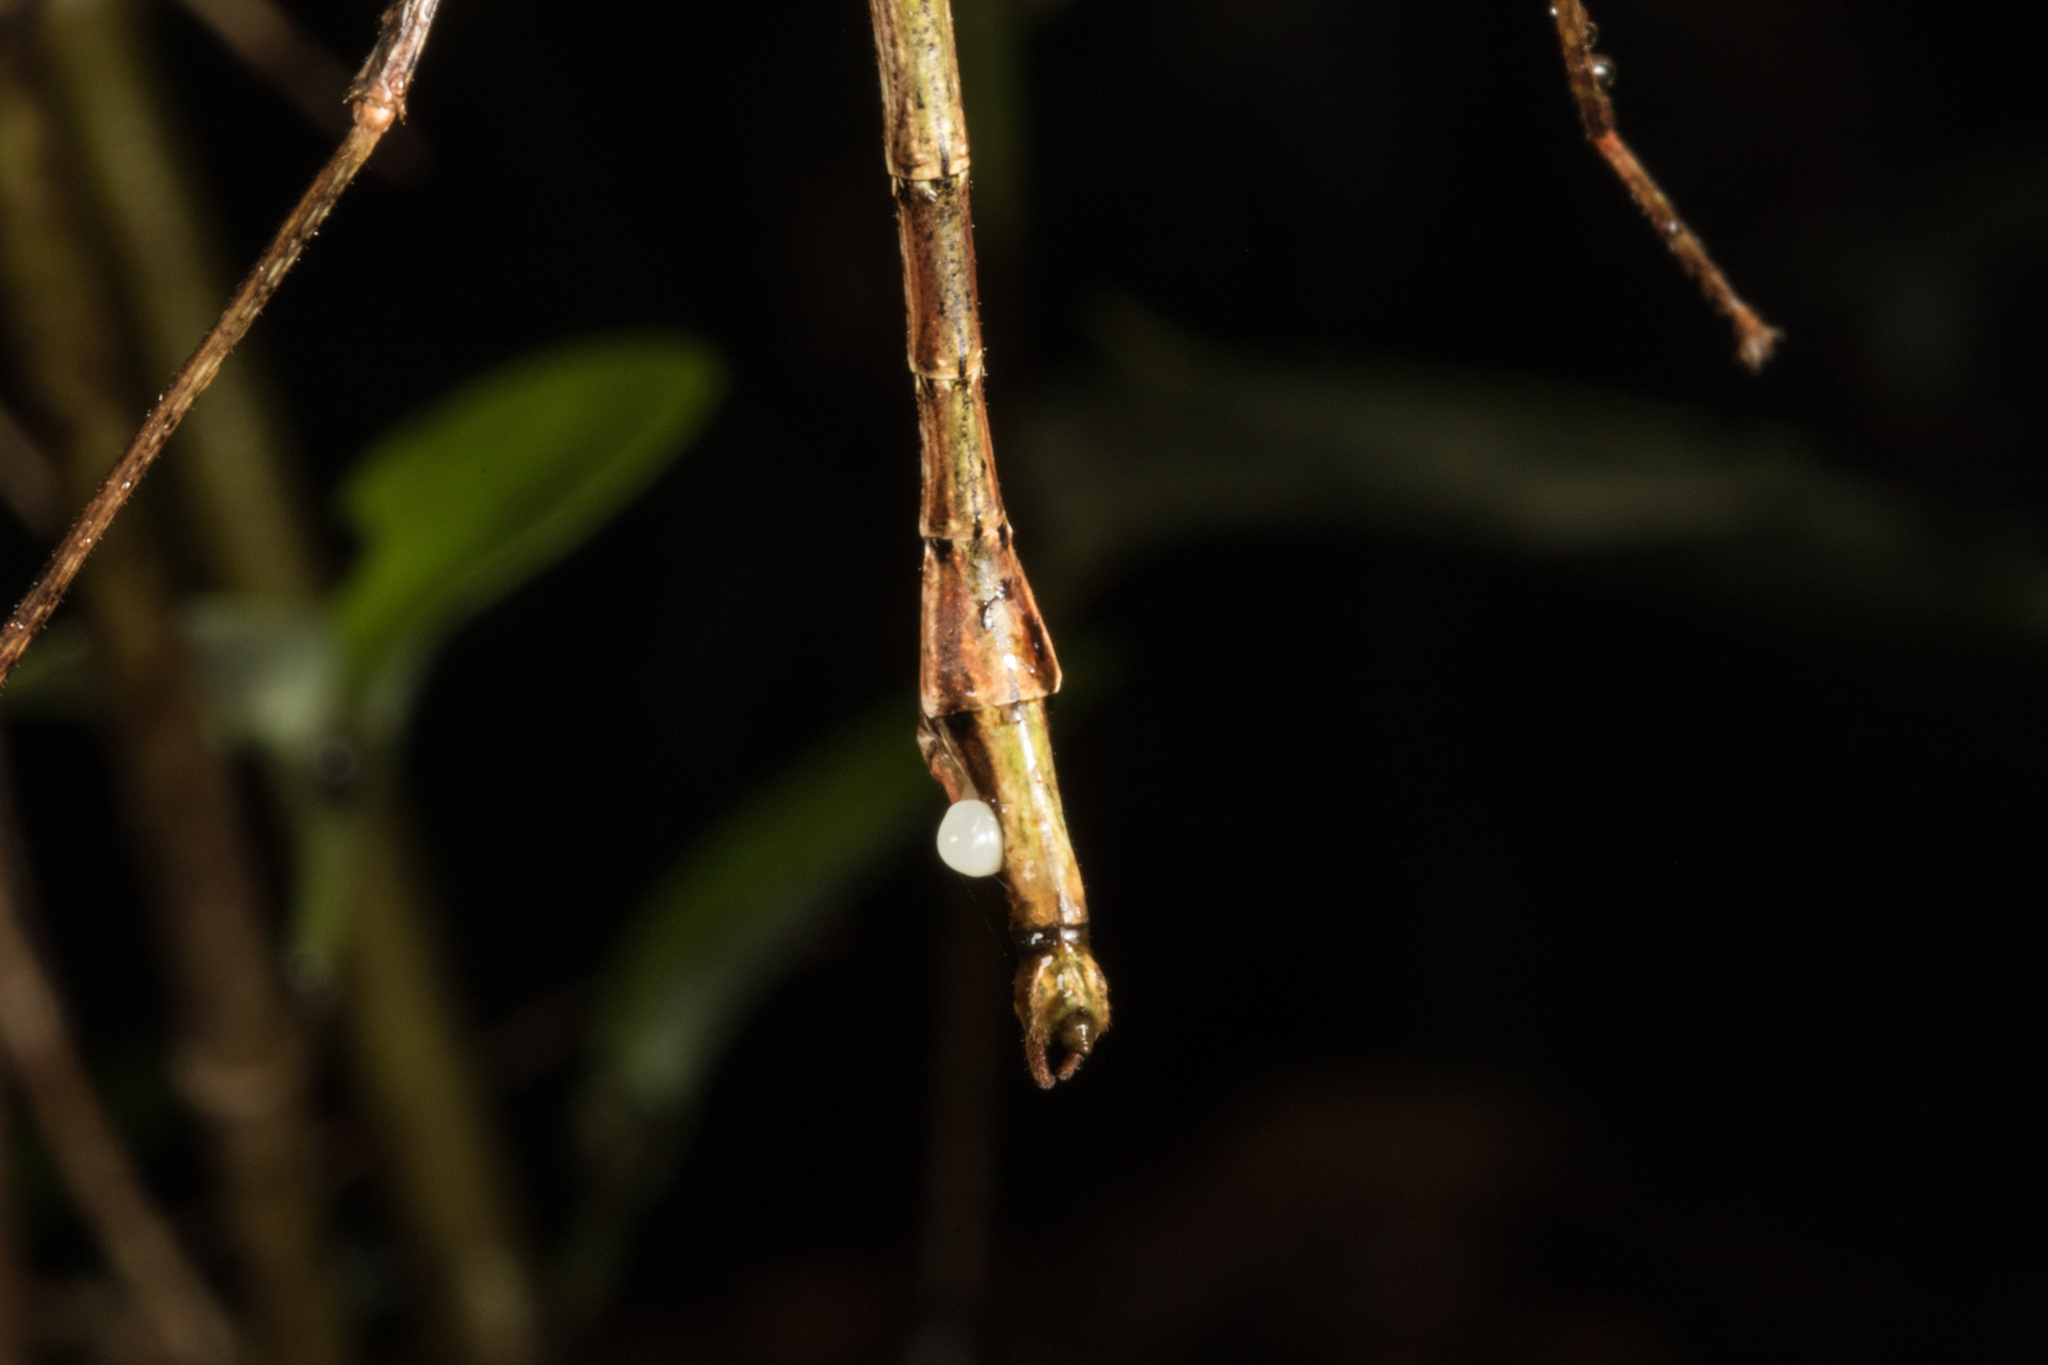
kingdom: Animalia
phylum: Arthropoda
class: Insecta
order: Phasmida
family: Phasmatidae
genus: Clitarchus
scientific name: Clitarchus hookeri
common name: Smooth stick insect
